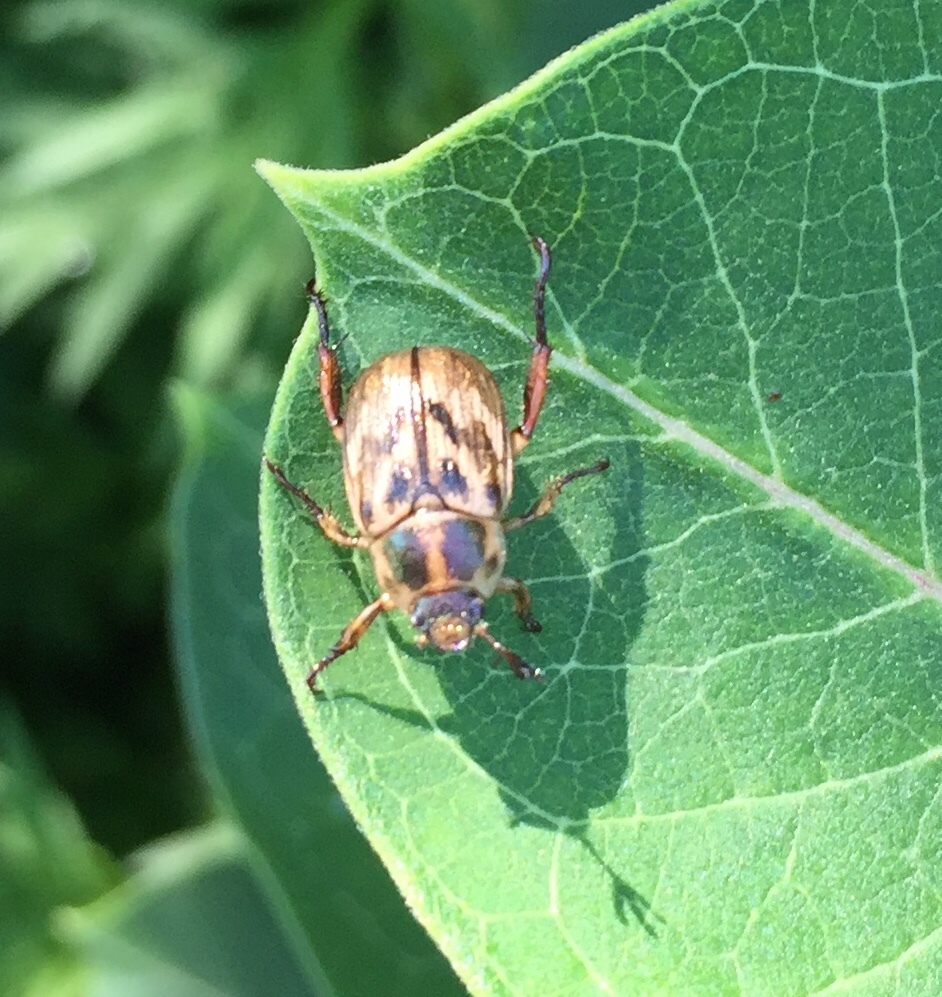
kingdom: Animalia
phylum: Arthropoda
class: Insecta
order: Coleoptera
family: Scarabaeidae
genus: Exomala
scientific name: Exomala orientalis
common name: Oriental beetle
